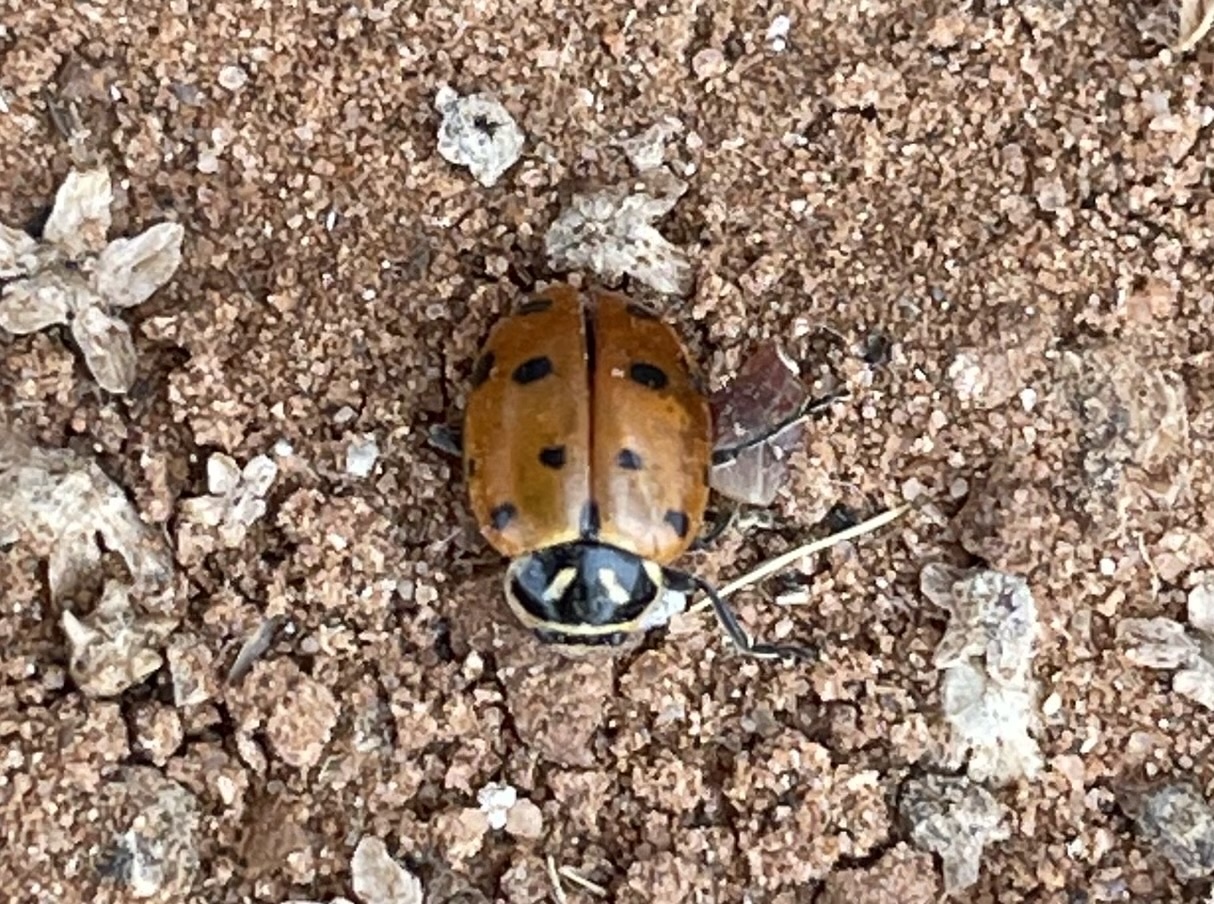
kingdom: Animalia
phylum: Arthropoda
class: Insecta
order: Coleoptera
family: Coccinellidae
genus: Hippodamia
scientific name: Hippodamia convergens
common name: Convergent lady beetle
